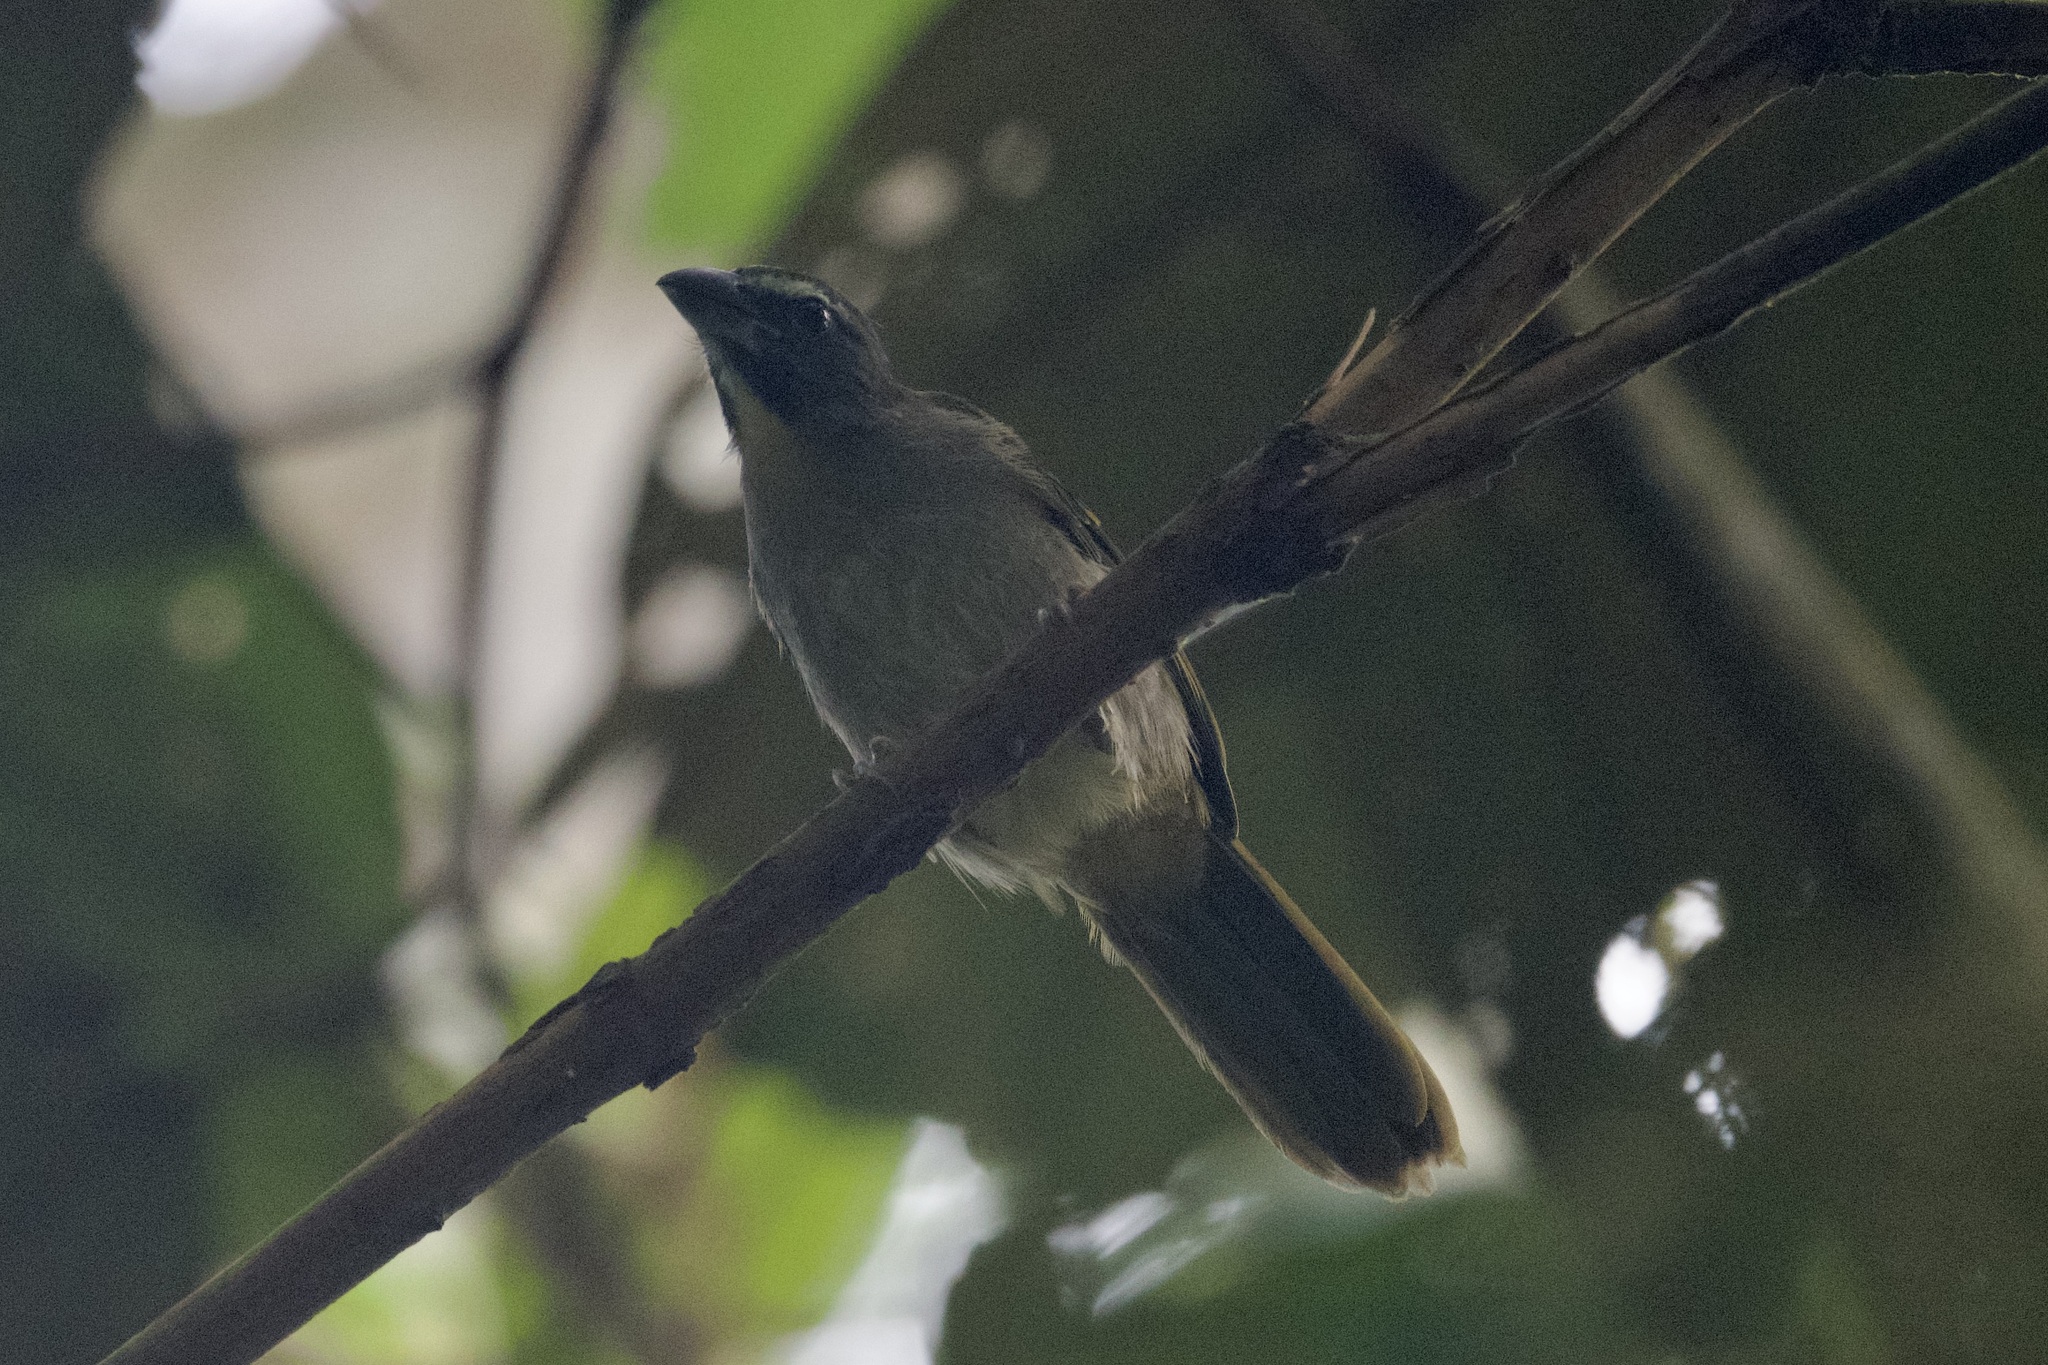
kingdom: Animalia
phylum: Chordata
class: Aves
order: Passeriformes
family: Thraupidae
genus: Saltator
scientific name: Saltator maximus
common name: Buff-throated saltator
